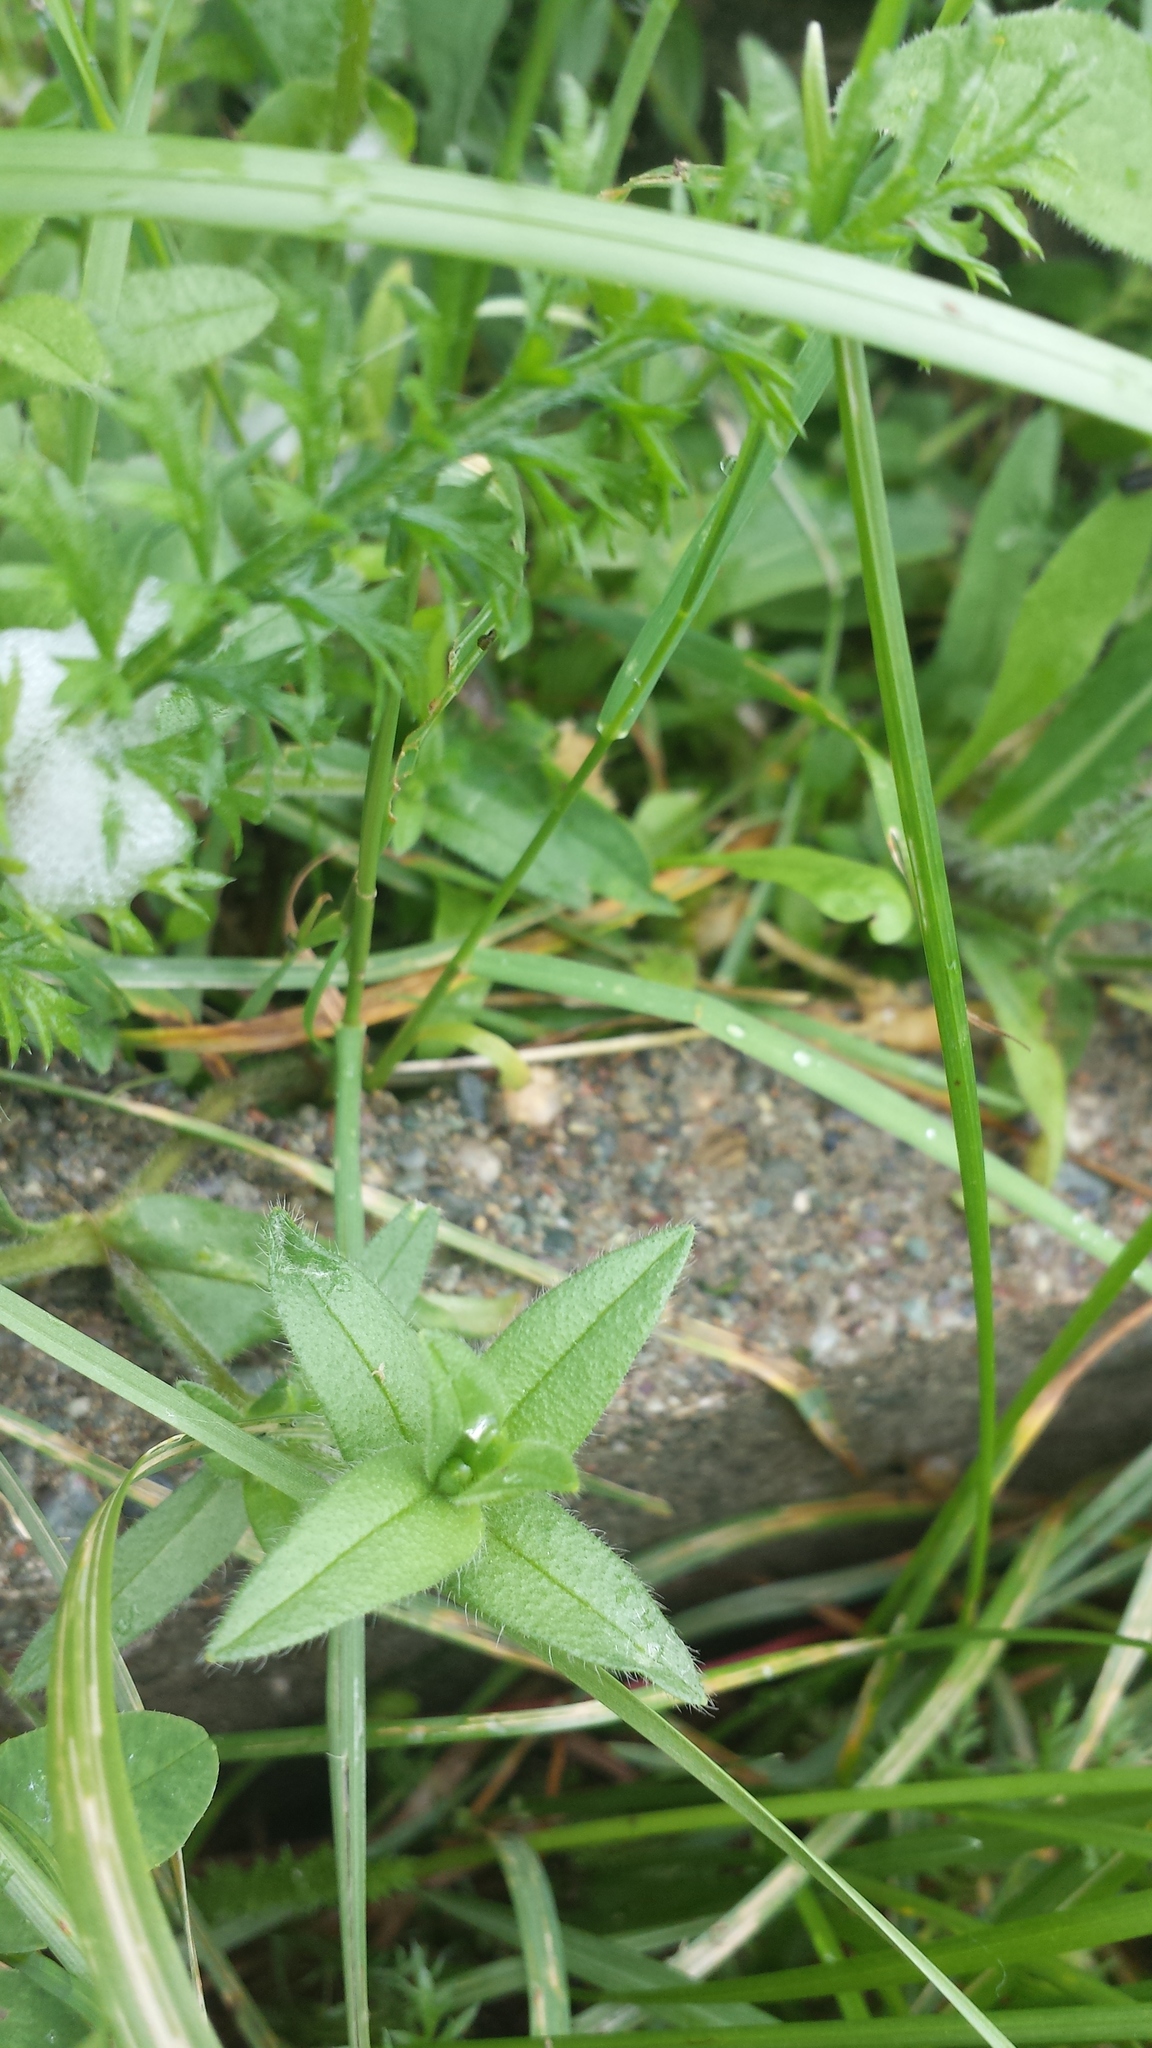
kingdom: Plantae
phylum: Tracheophyta
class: Magnoliopsida
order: Caryophyllales
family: Caryophyllaceae
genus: Cerastium
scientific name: Cerastium fontanum
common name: Common mouse-ear
